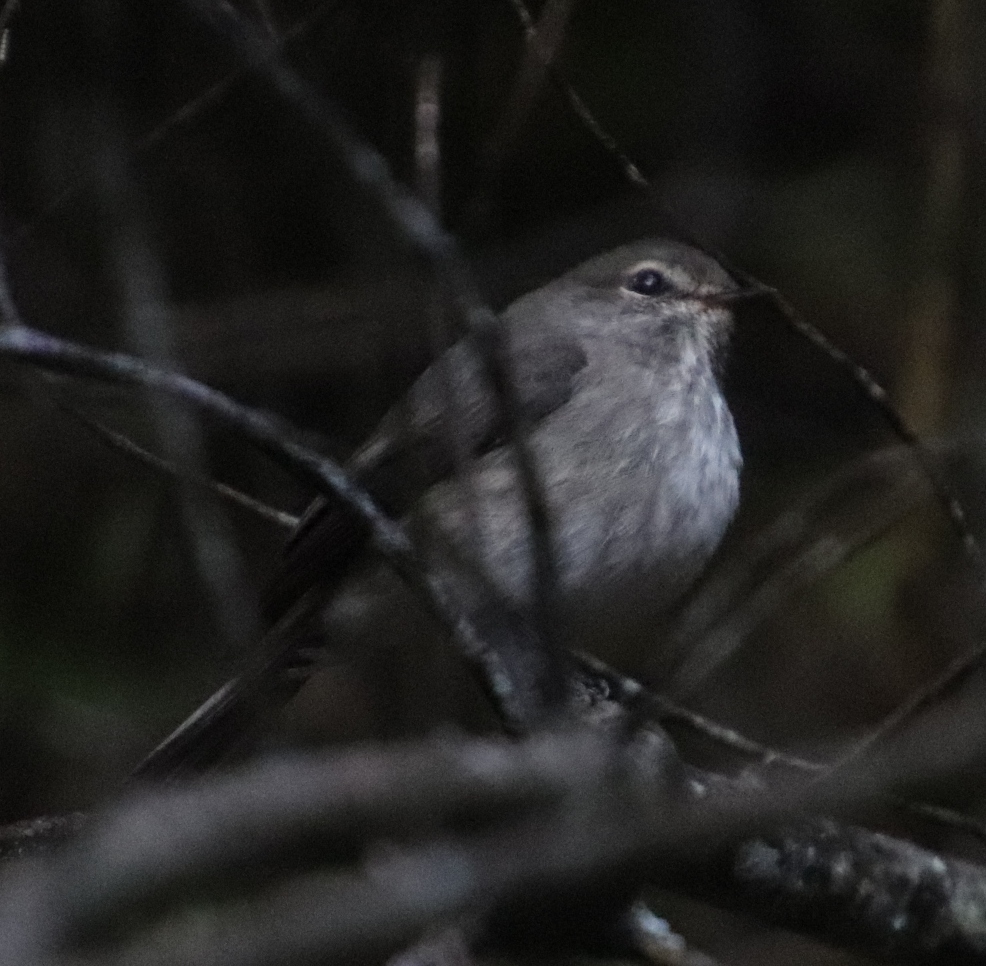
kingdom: Animalia
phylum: Chordata
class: Aves
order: Passeriformes
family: Muscicapidae
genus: Muscicapa
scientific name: Muscicapa adusta
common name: African dusky flycatcher
